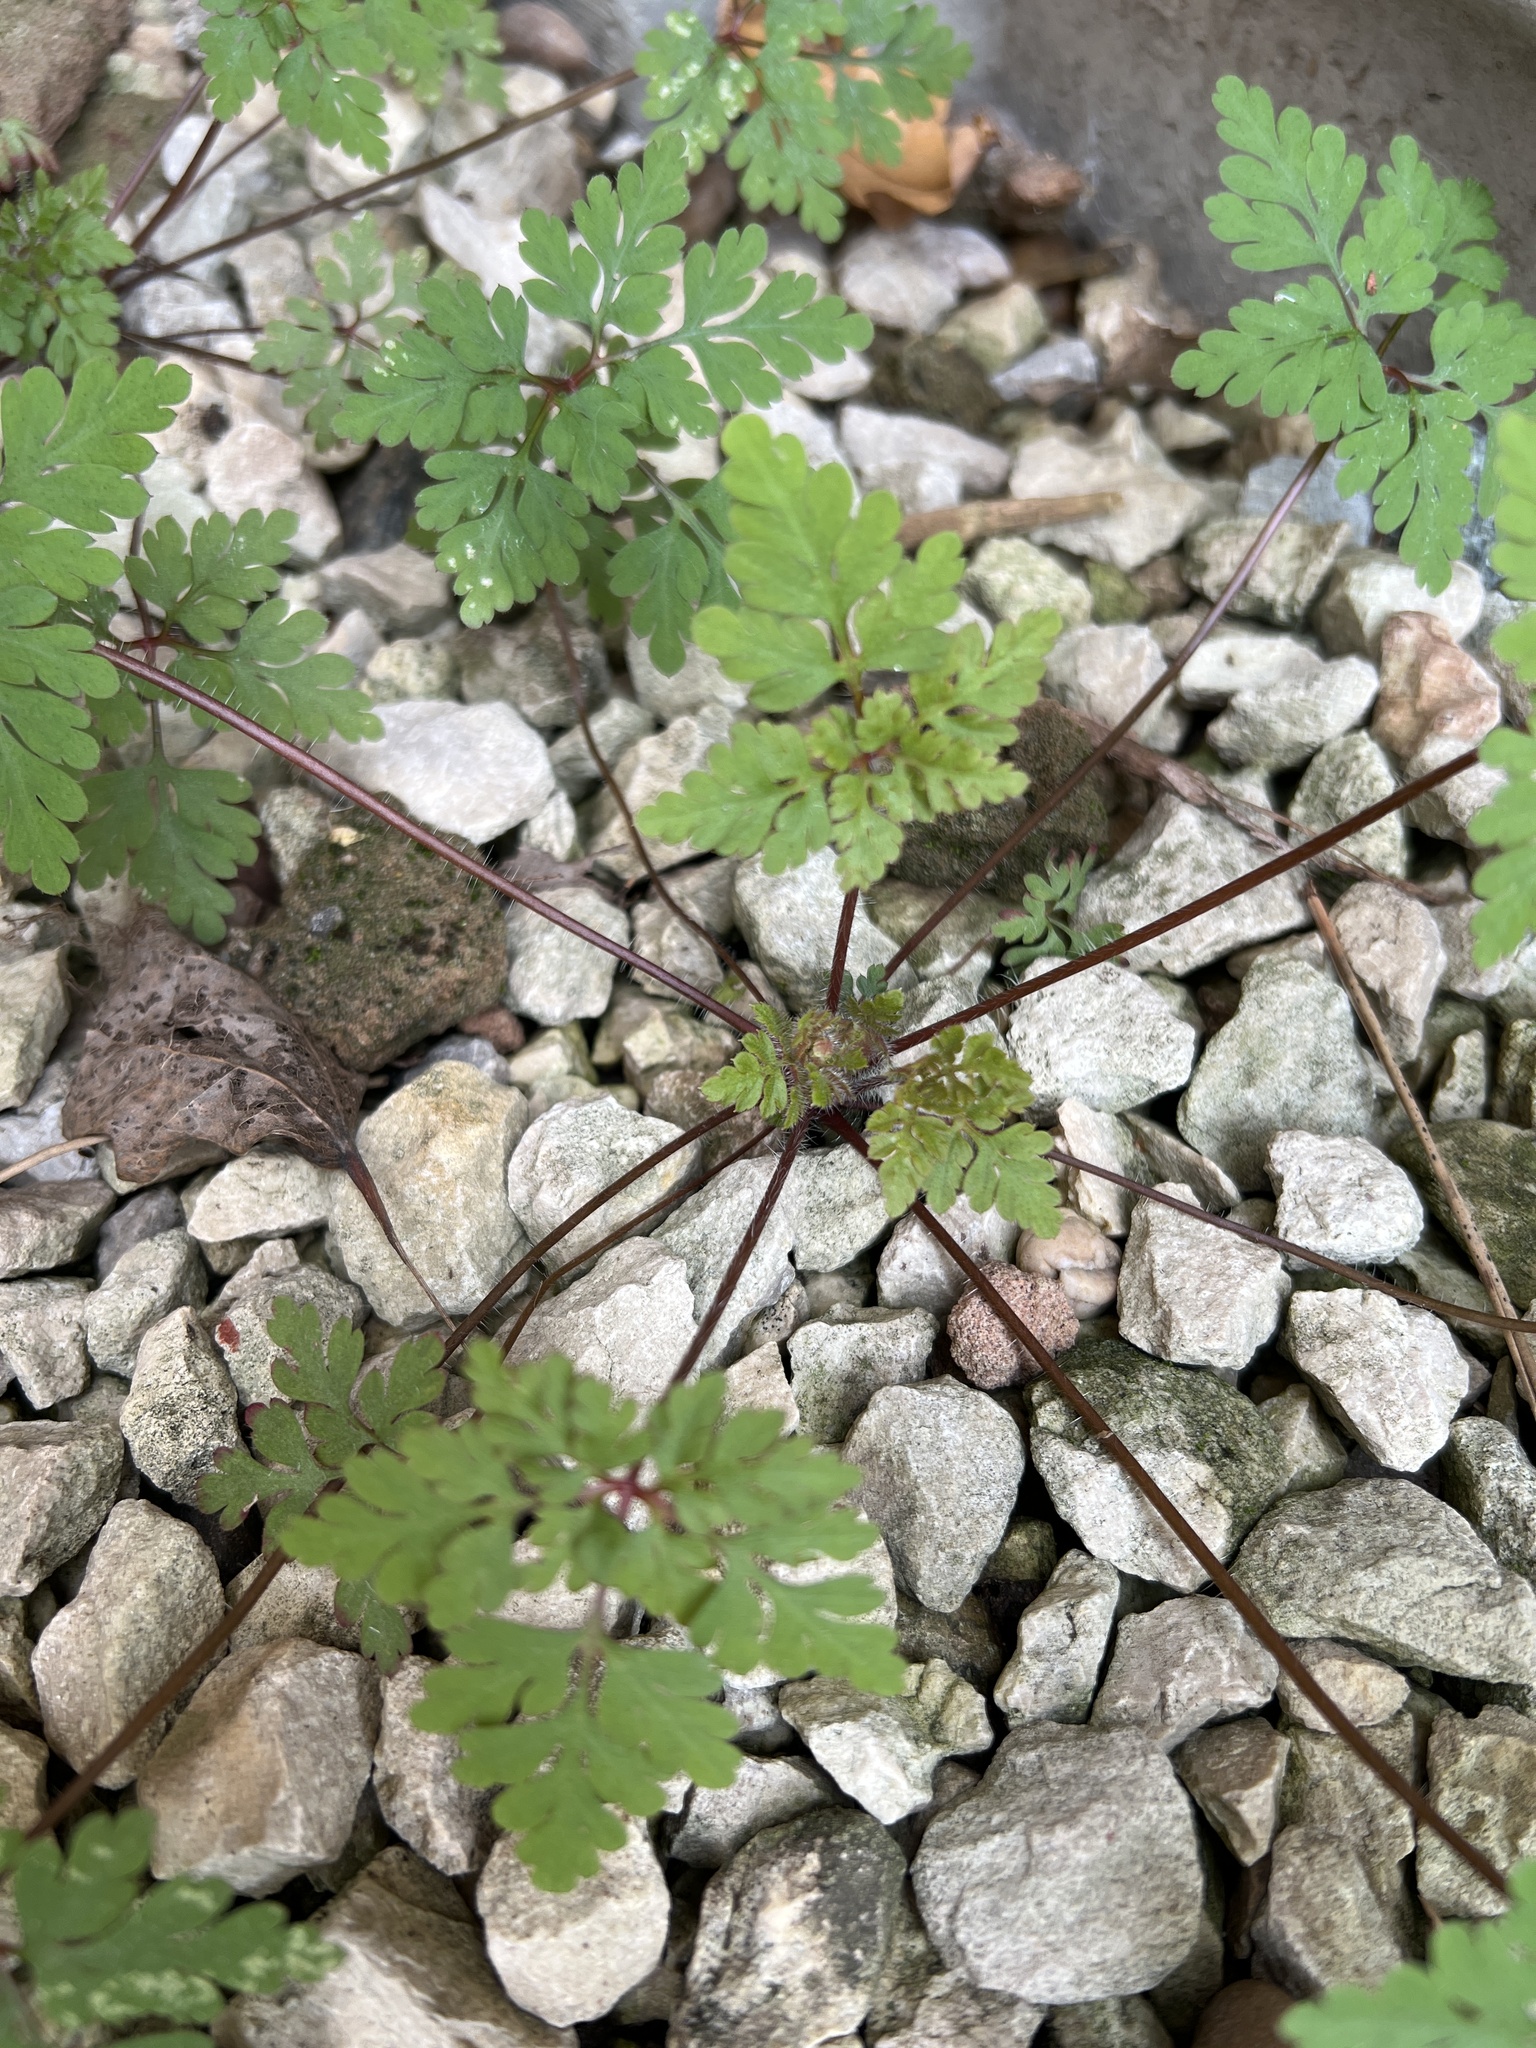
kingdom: Plantae
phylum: Tracheophyta
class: Magnoliopsida
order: Geraniales
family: Geraniaceae
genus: Geranium
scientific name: Geranium robertianum
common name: Herb-robert
